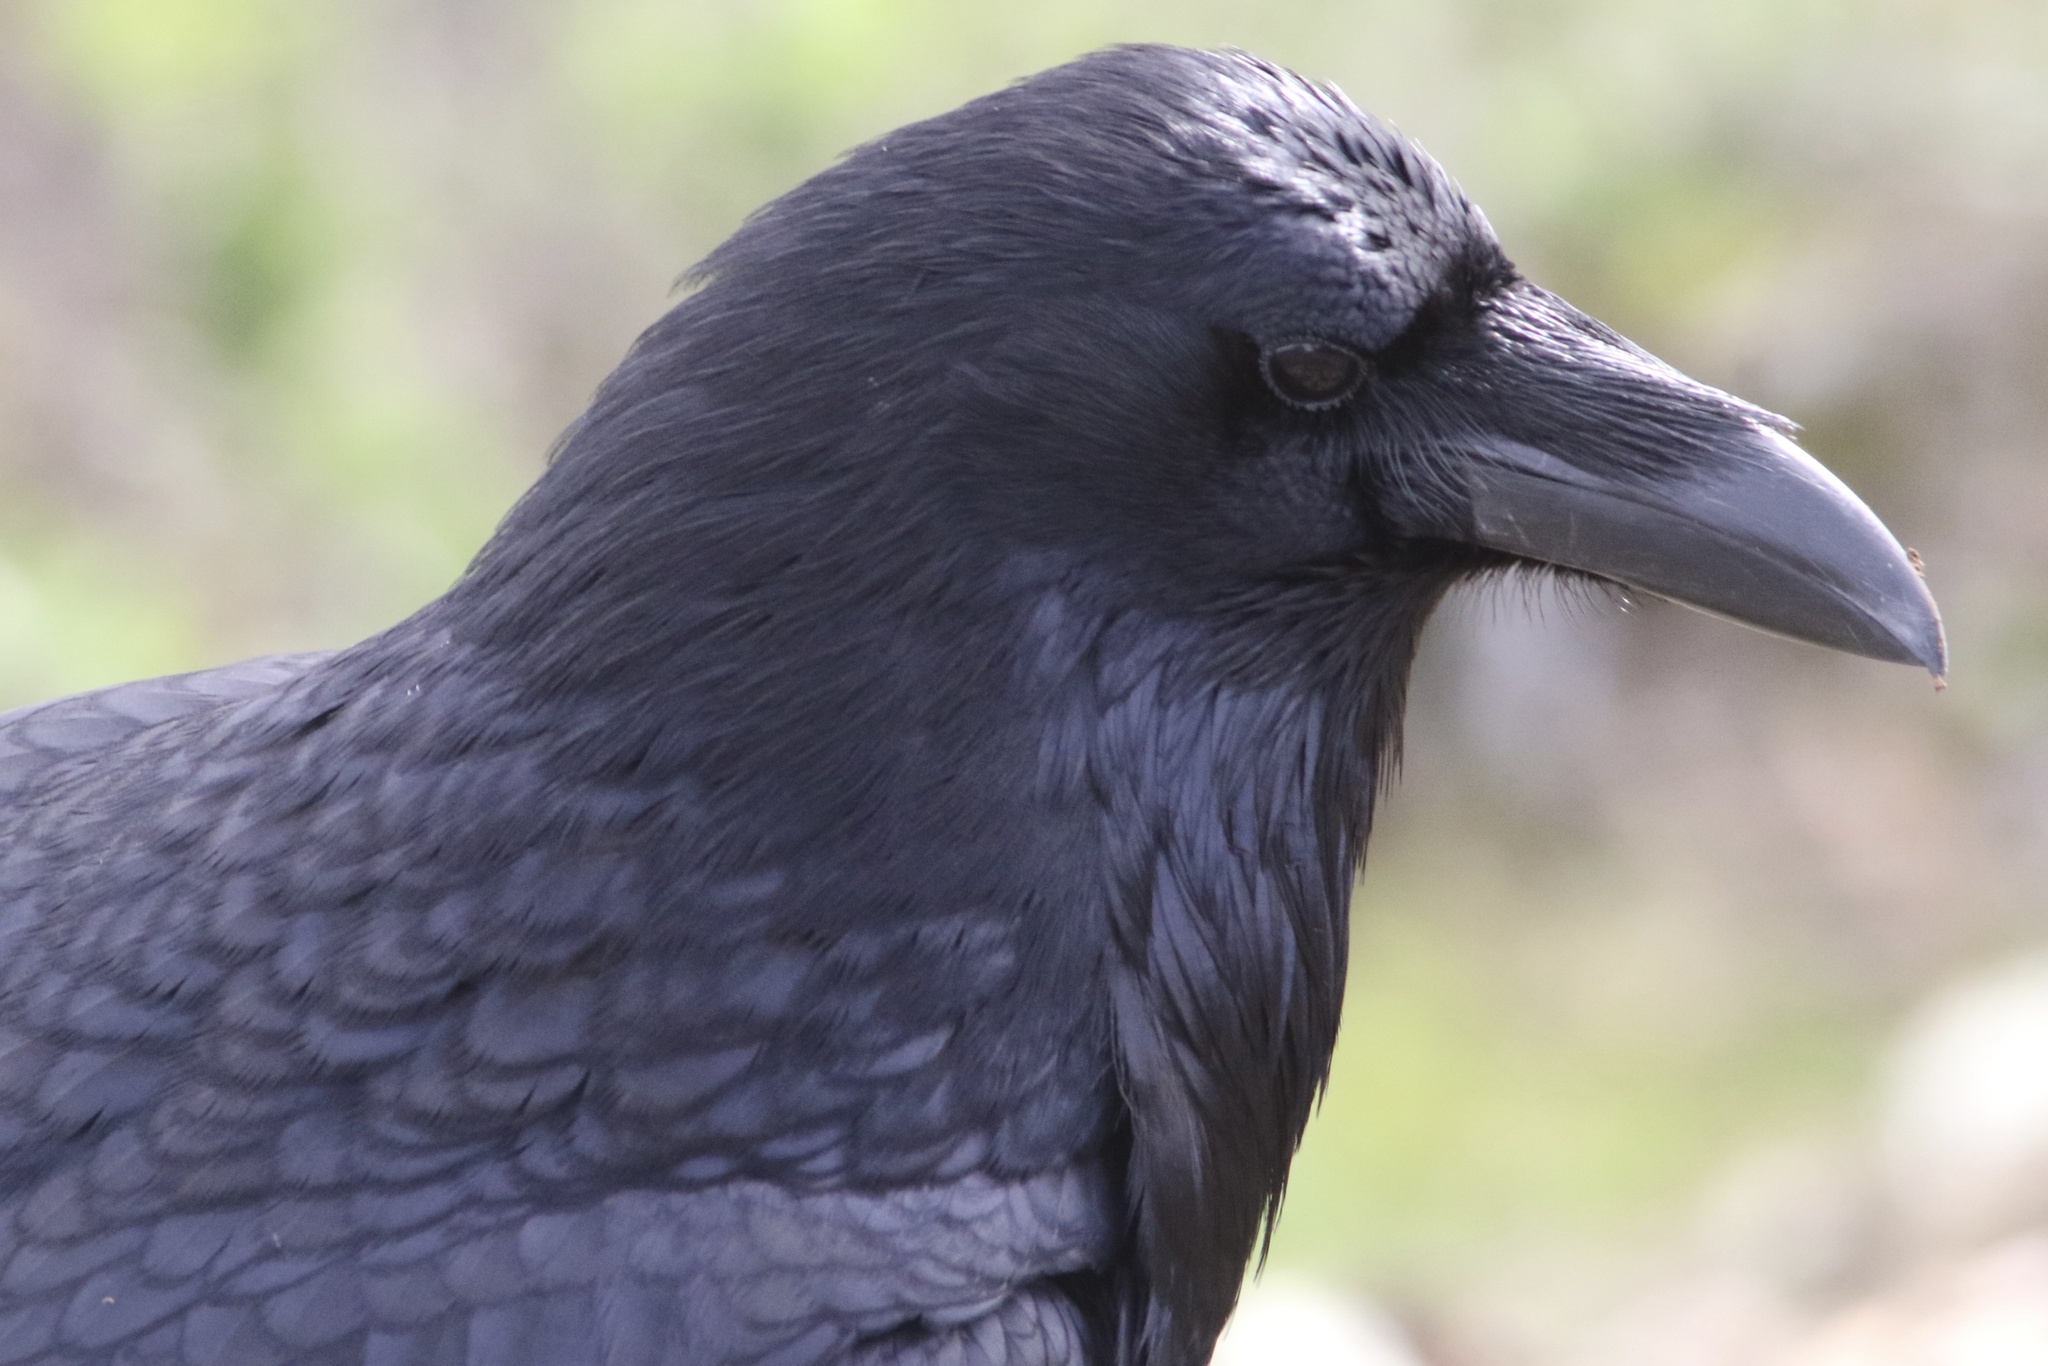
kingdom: Animalia
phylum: Chordata
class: Aves
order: Passeriformes
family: Corvidae
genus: Corvus
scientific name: Corvus corax
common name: Common raven
